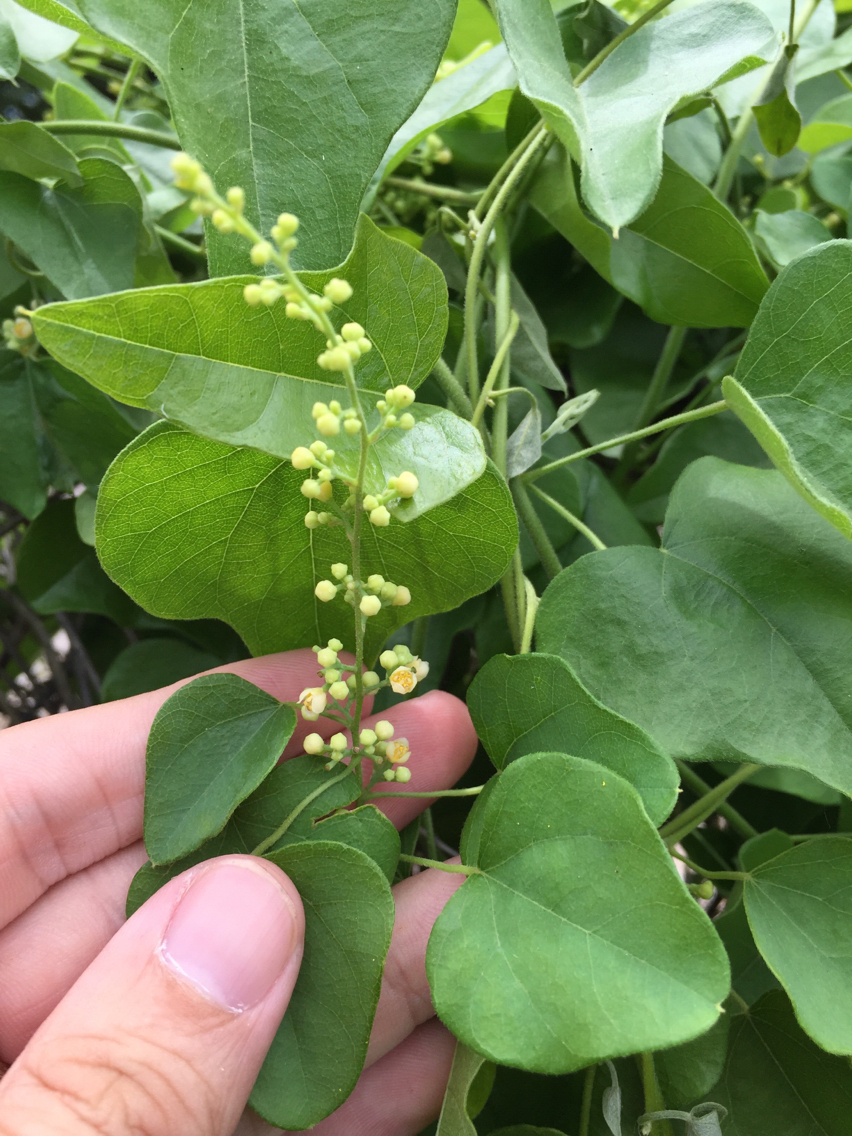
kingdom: Plantae
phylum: Tracheophyta
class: Magnoliopsida
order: Ranunculales
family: Menispermaceae
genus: Cocculus
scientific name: Cocculus carolinus
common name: Carolina moonseed
